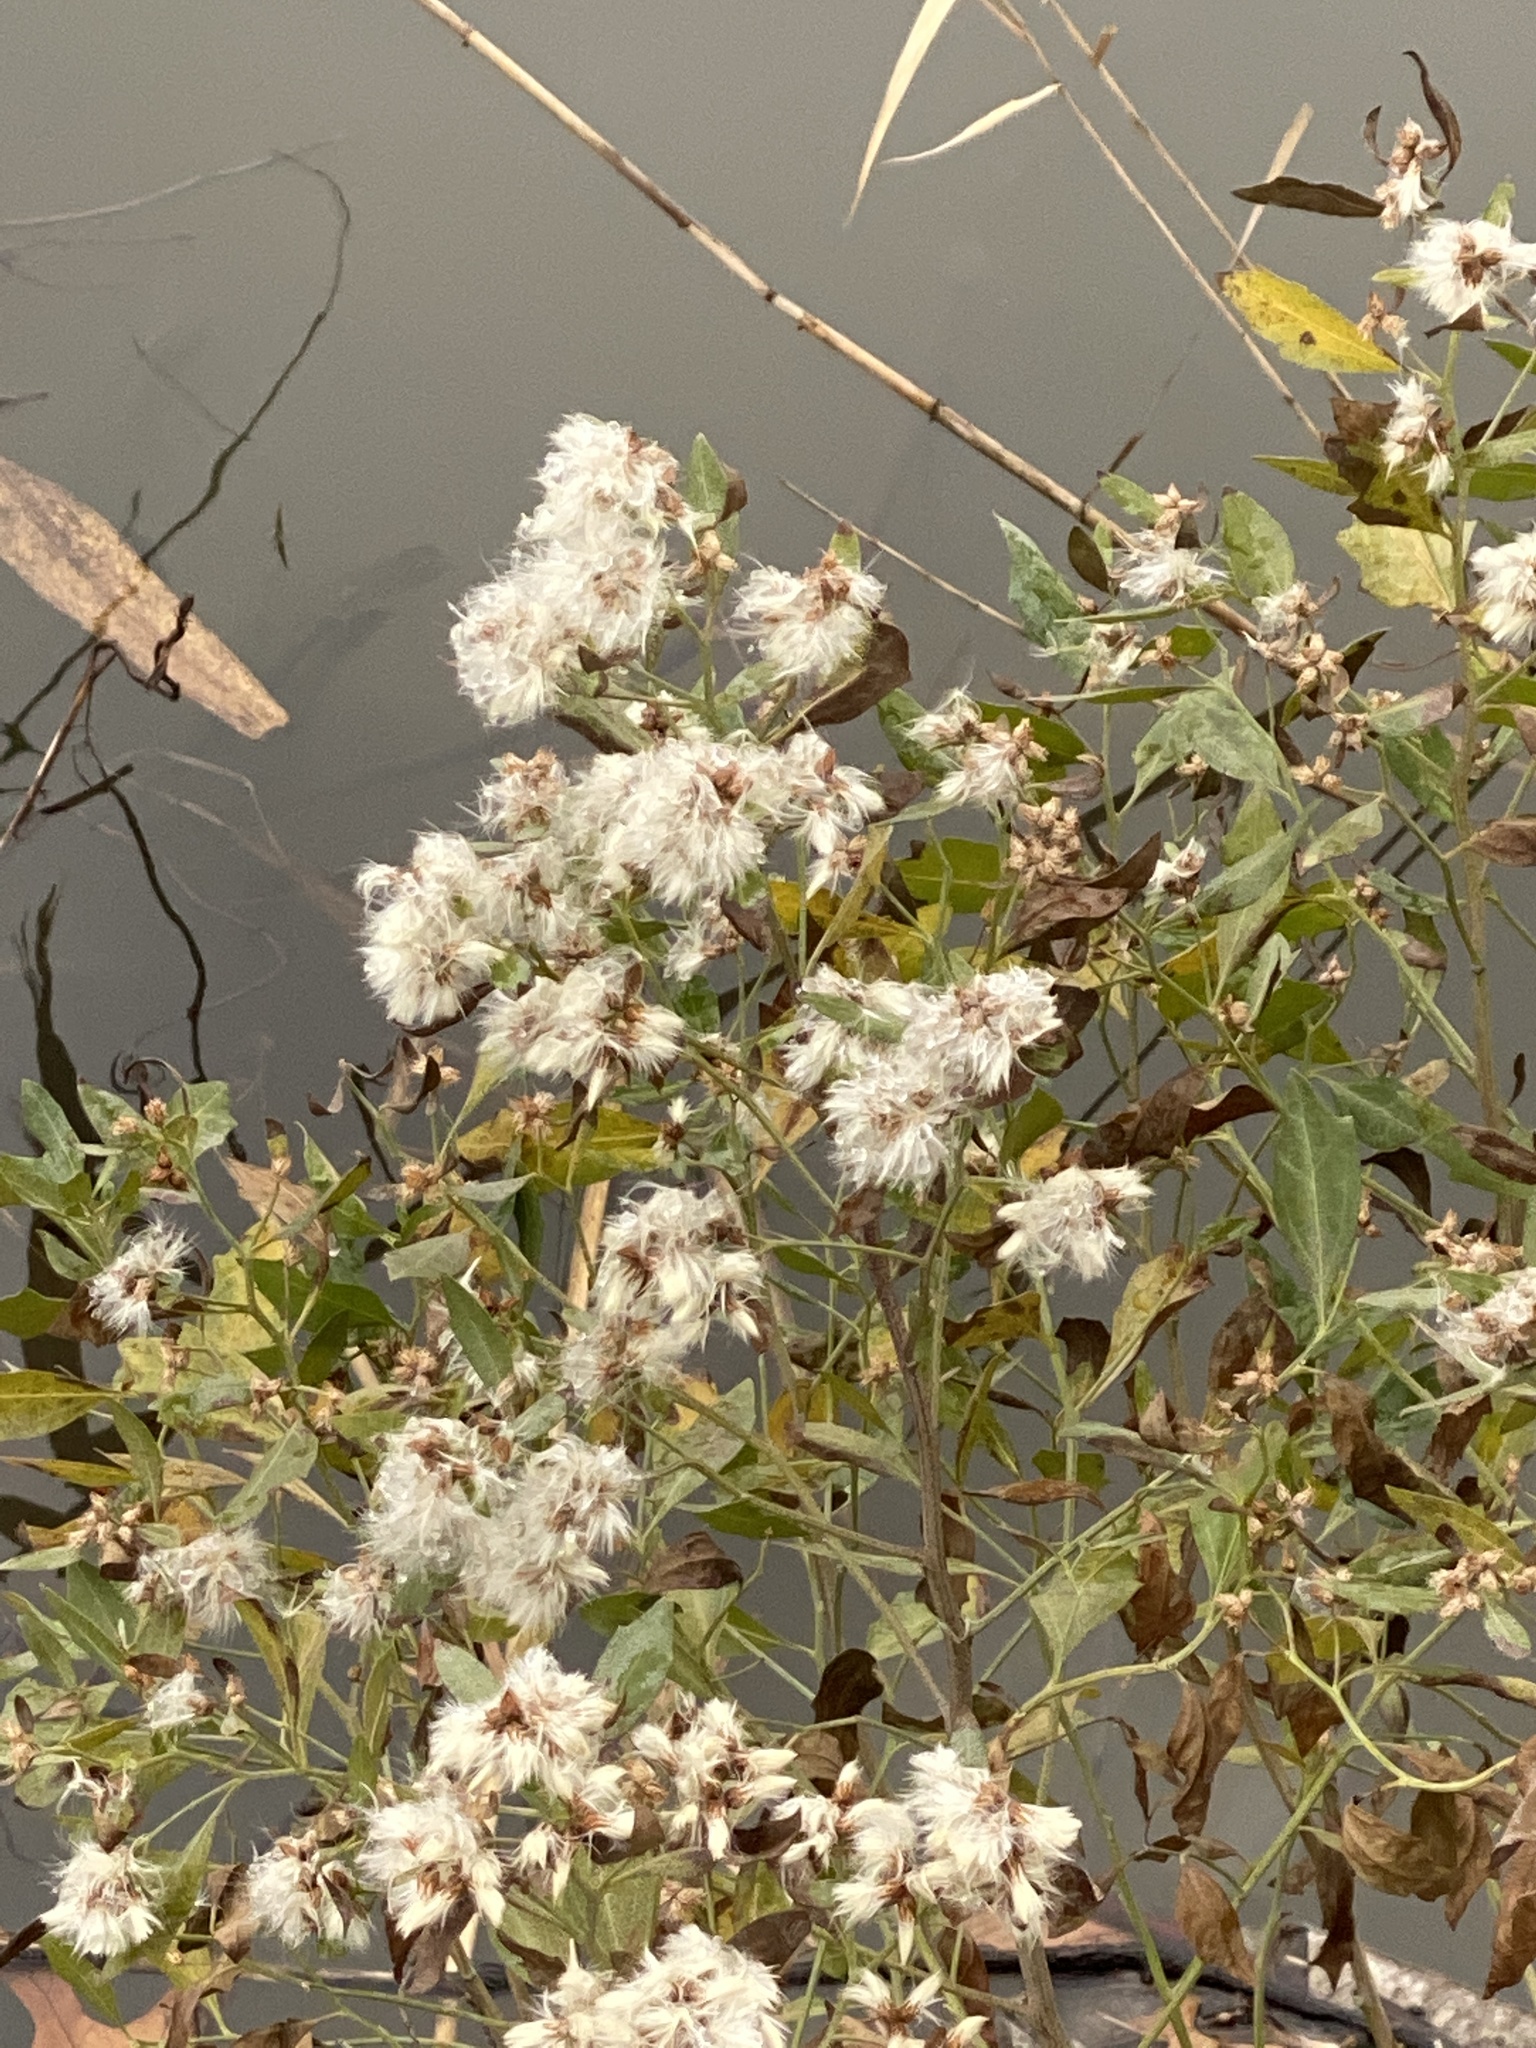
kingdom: Plantae
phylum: Tracheophyta
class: Magnoliopsida
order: Asterales
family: Asteraceae
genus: Baccharis
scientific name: Baccharis halimifolia
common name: Eastern baccharis
